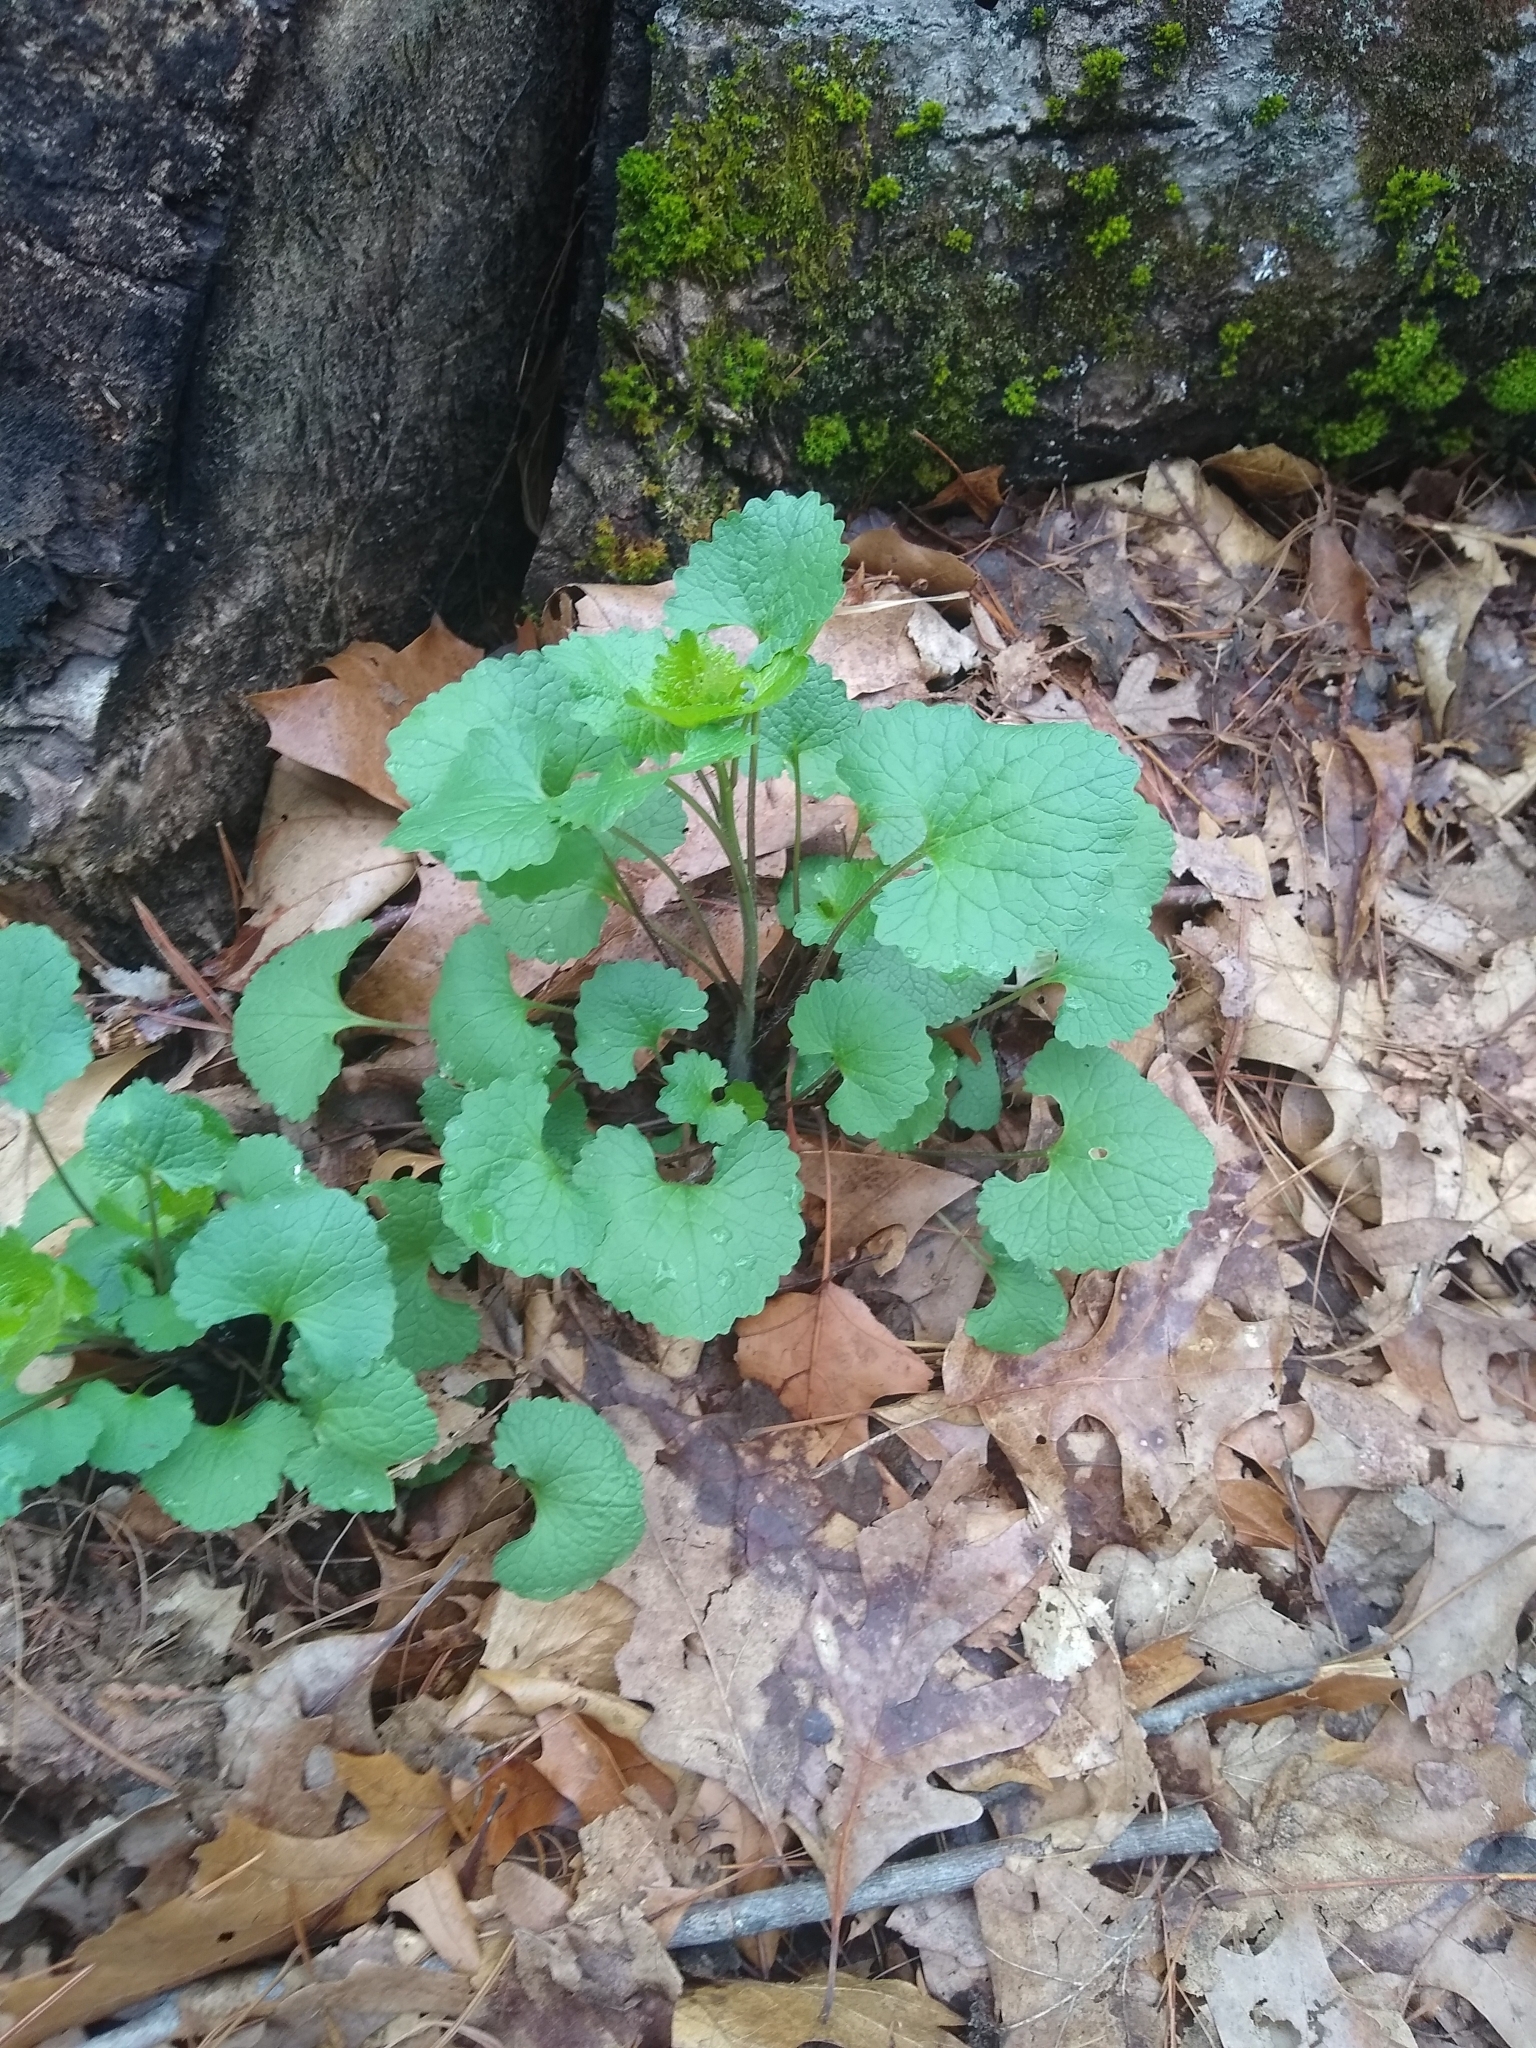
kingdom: Plantae
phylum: Tracheophyta
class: Magnoliopsida
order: Brassicales
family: Brassicaceae
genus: Alliaria
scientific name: Alliaria petiolata
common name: Garlic mustard
